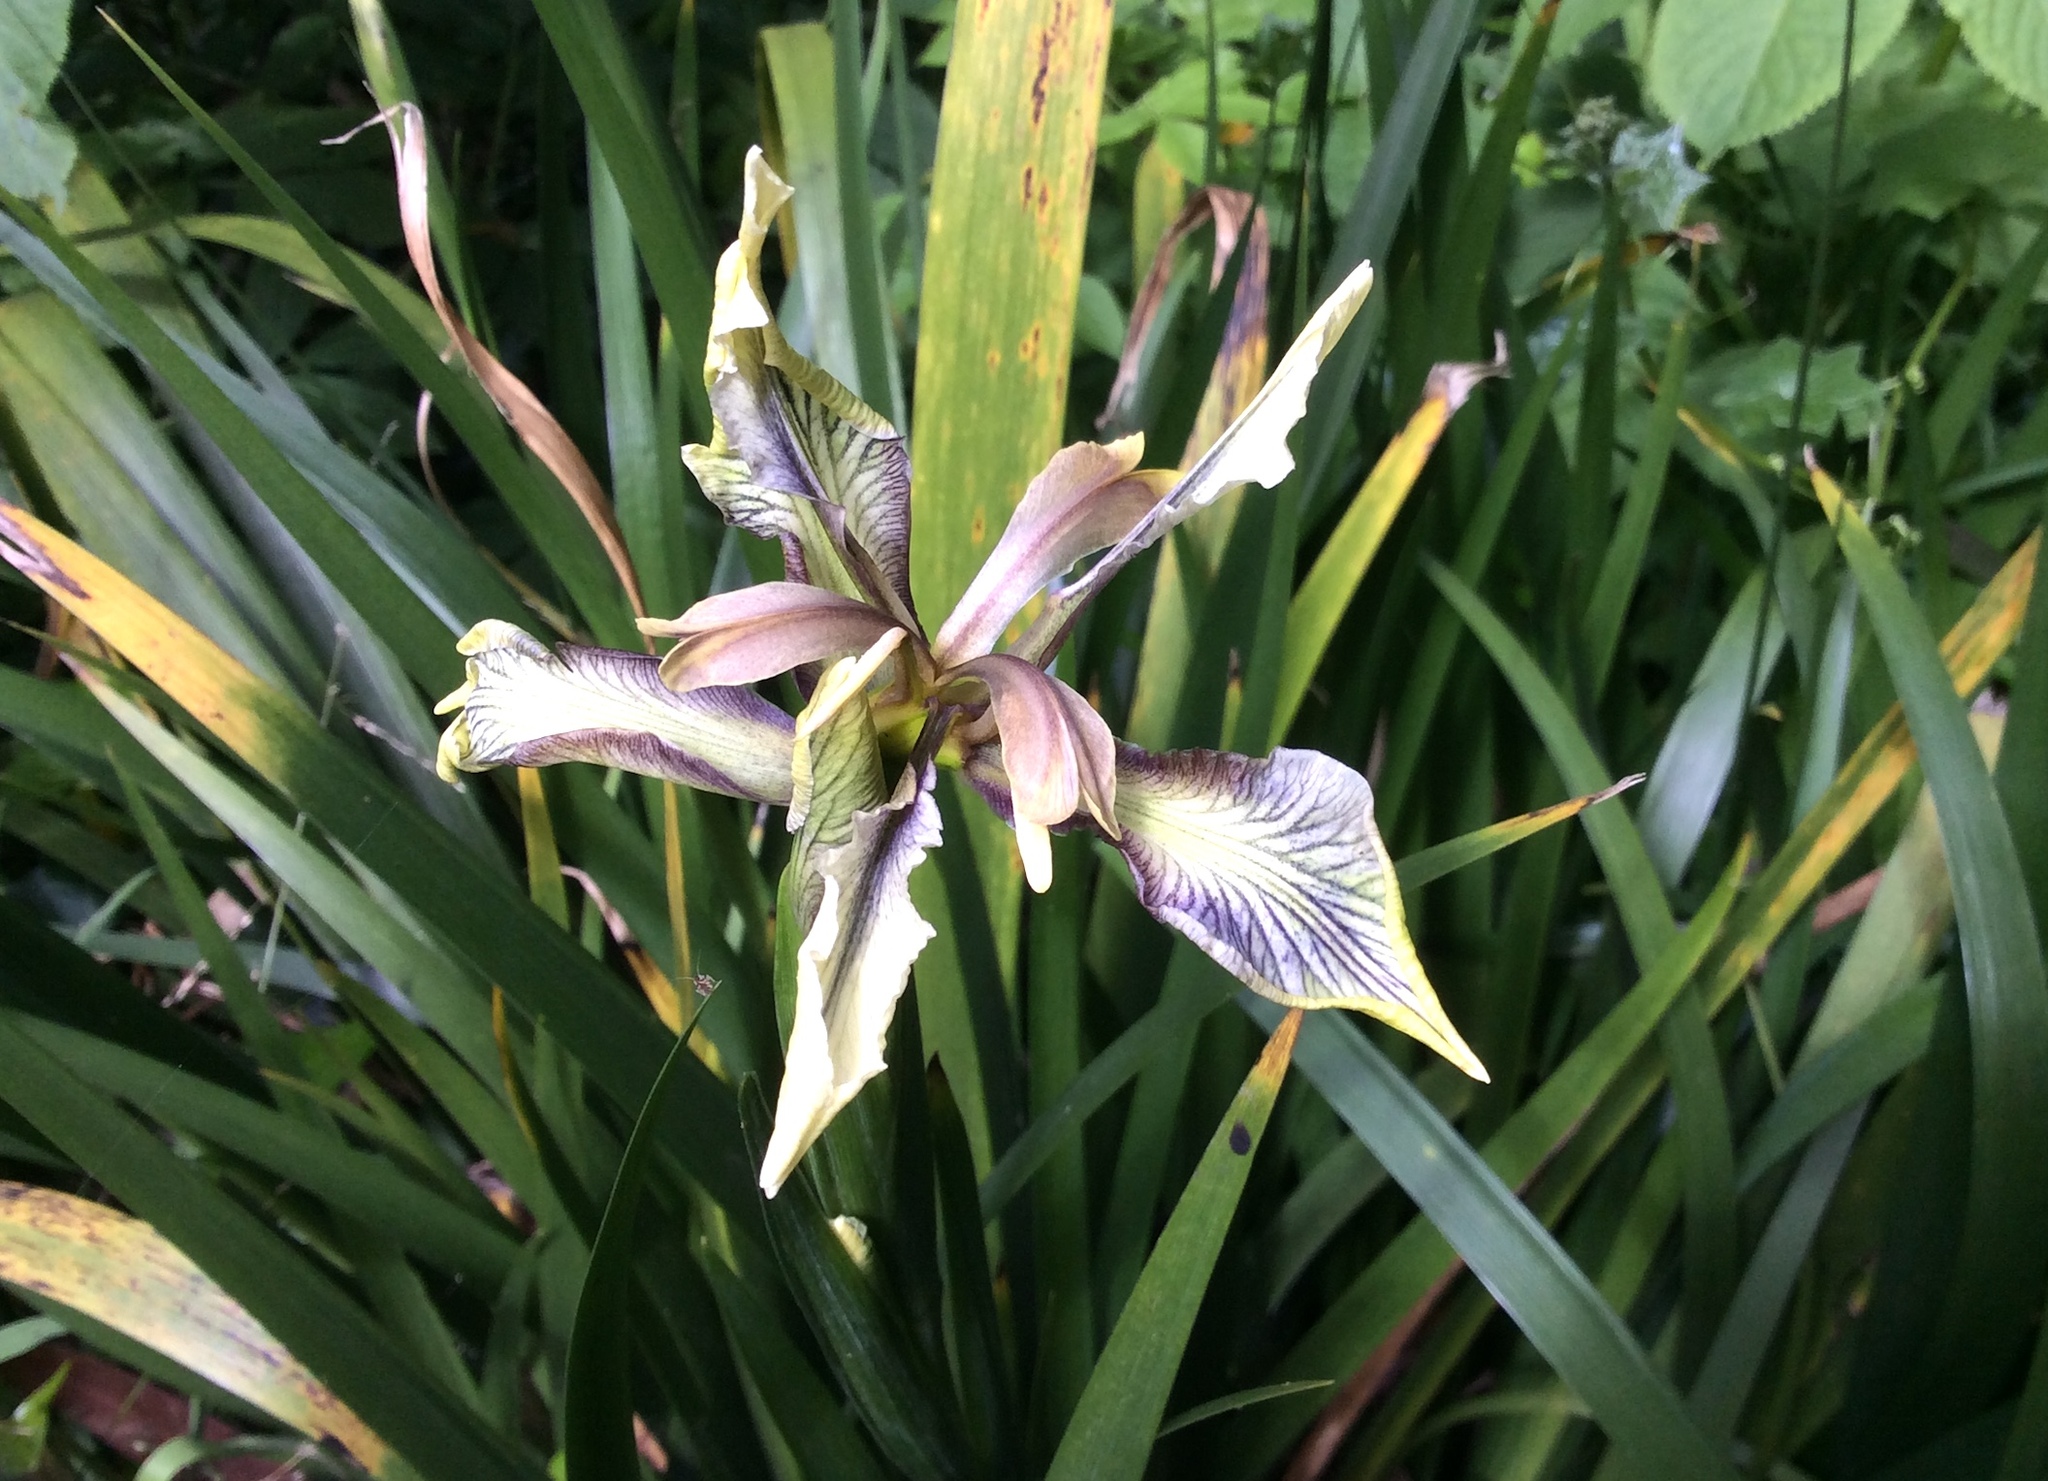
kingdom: Plantae
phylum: Tracheophyta
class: Liliopsida
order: Asparagales
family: Iridaceae
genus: Iris
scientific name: Iris foetidissima
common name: Stinking iris
